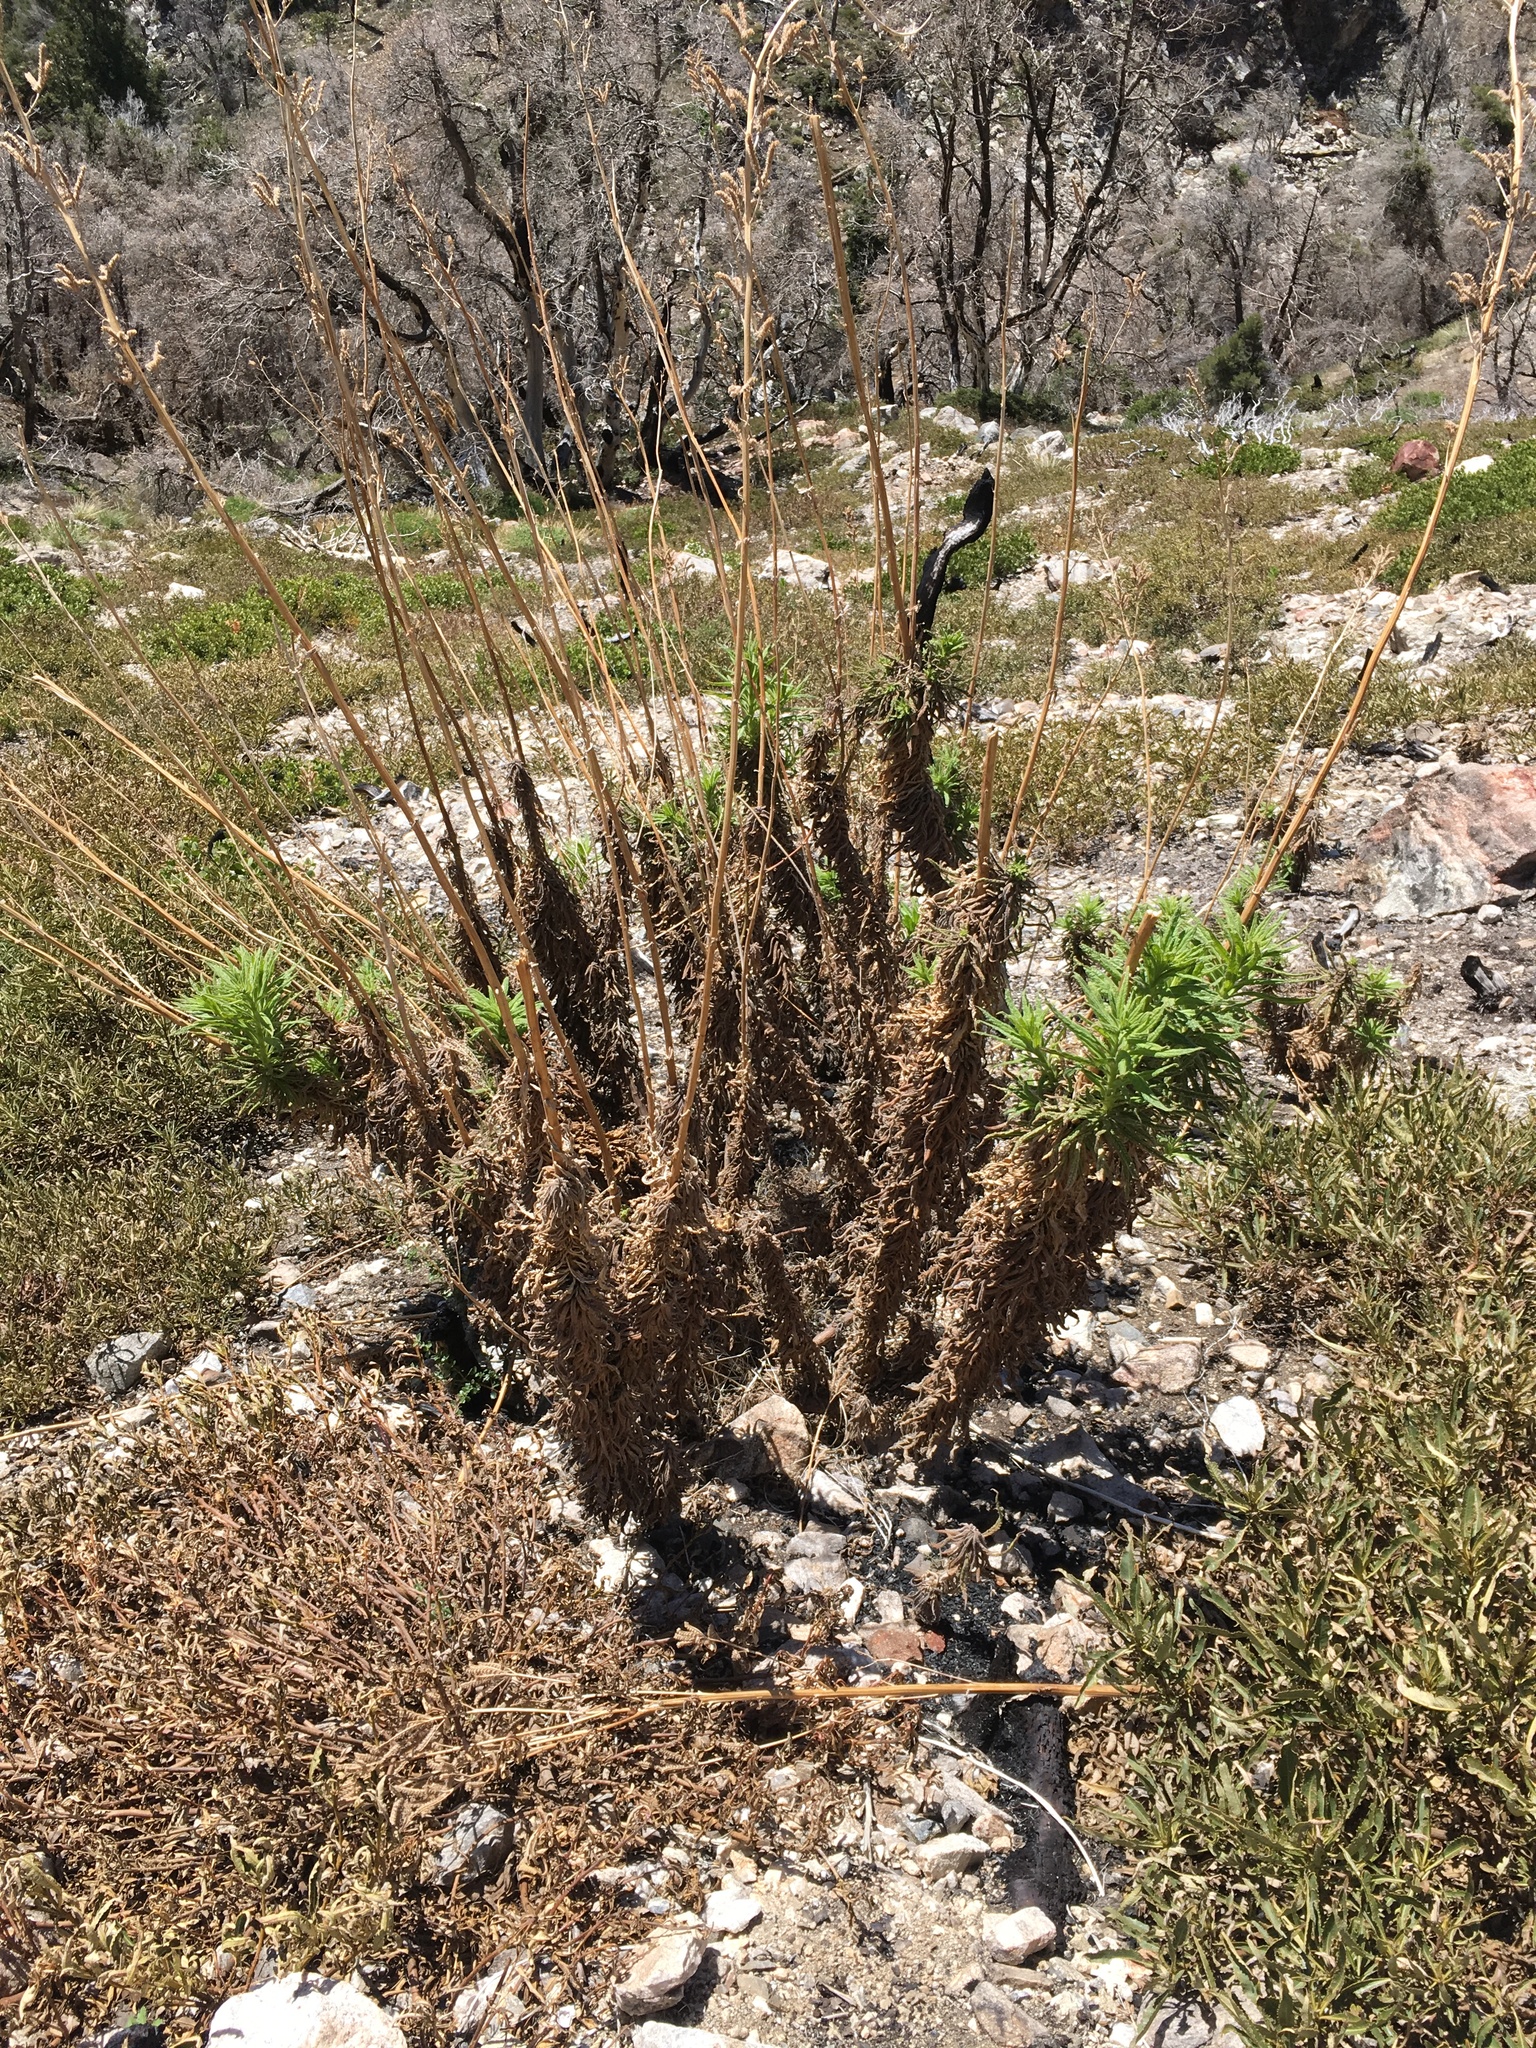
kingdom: Plantae
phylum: Tracheophyta
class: Magnoliopsida
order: Boraginales
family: Namaceae
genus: Turricula
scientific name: Turricula parryi
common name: Poodle-dog-bush
